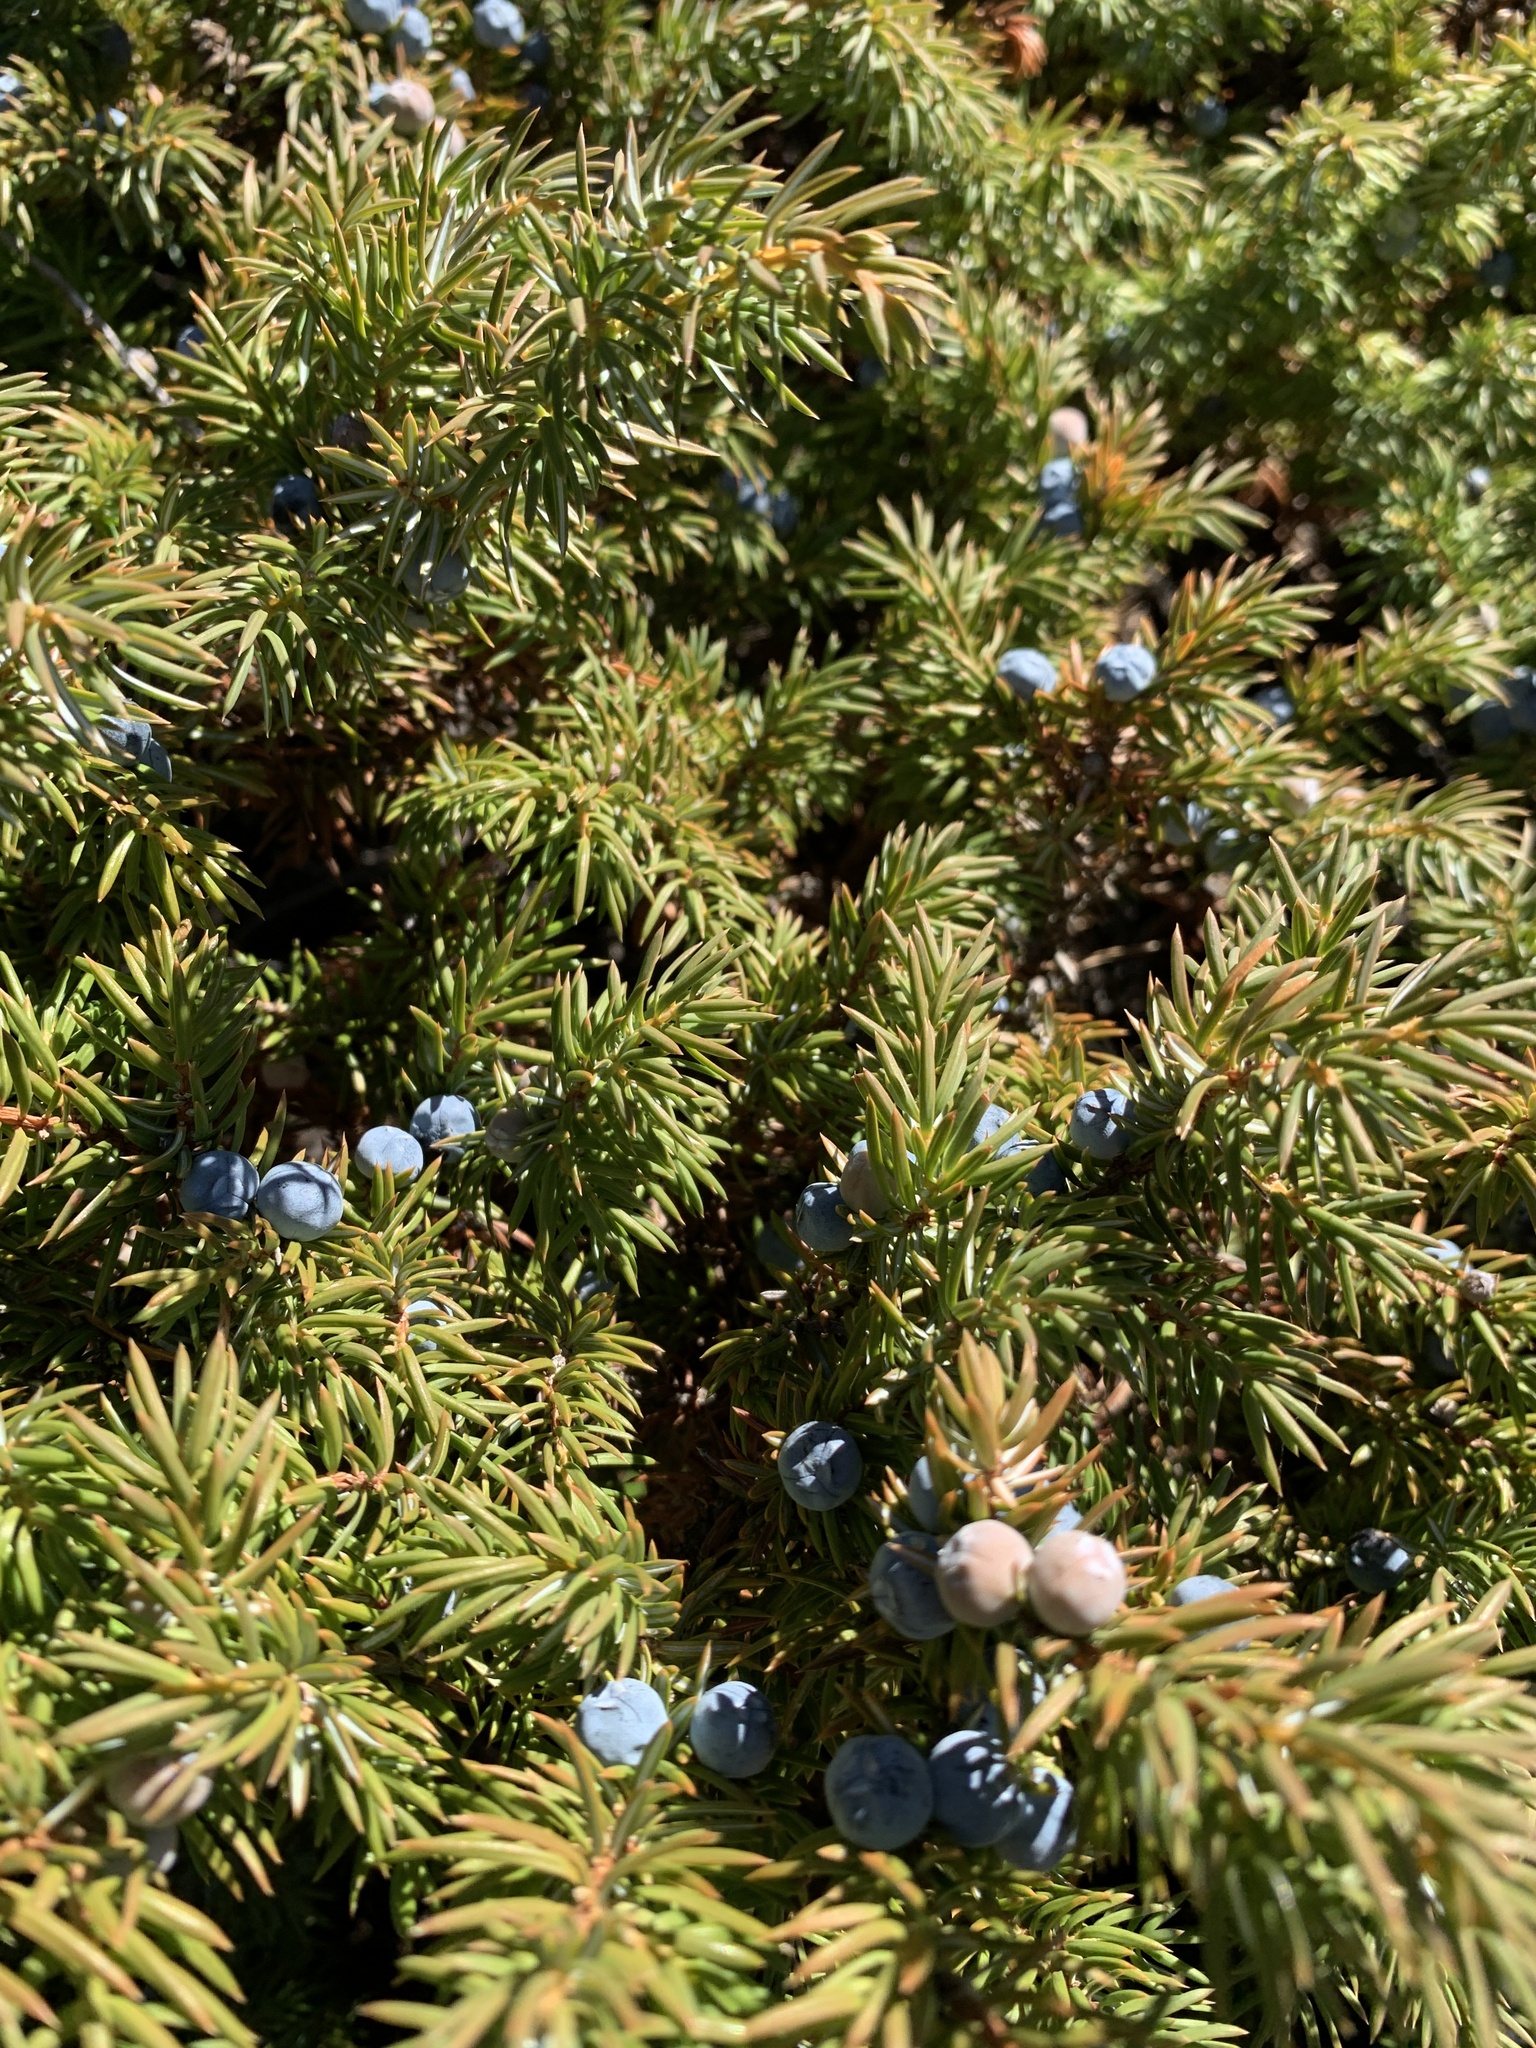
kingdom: Plantae
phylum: Tracheophyta
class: Pinopsida
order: Pinales
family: Cupressaceae
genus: Juniperus
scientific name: Juniperus communis
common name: Common juniper
